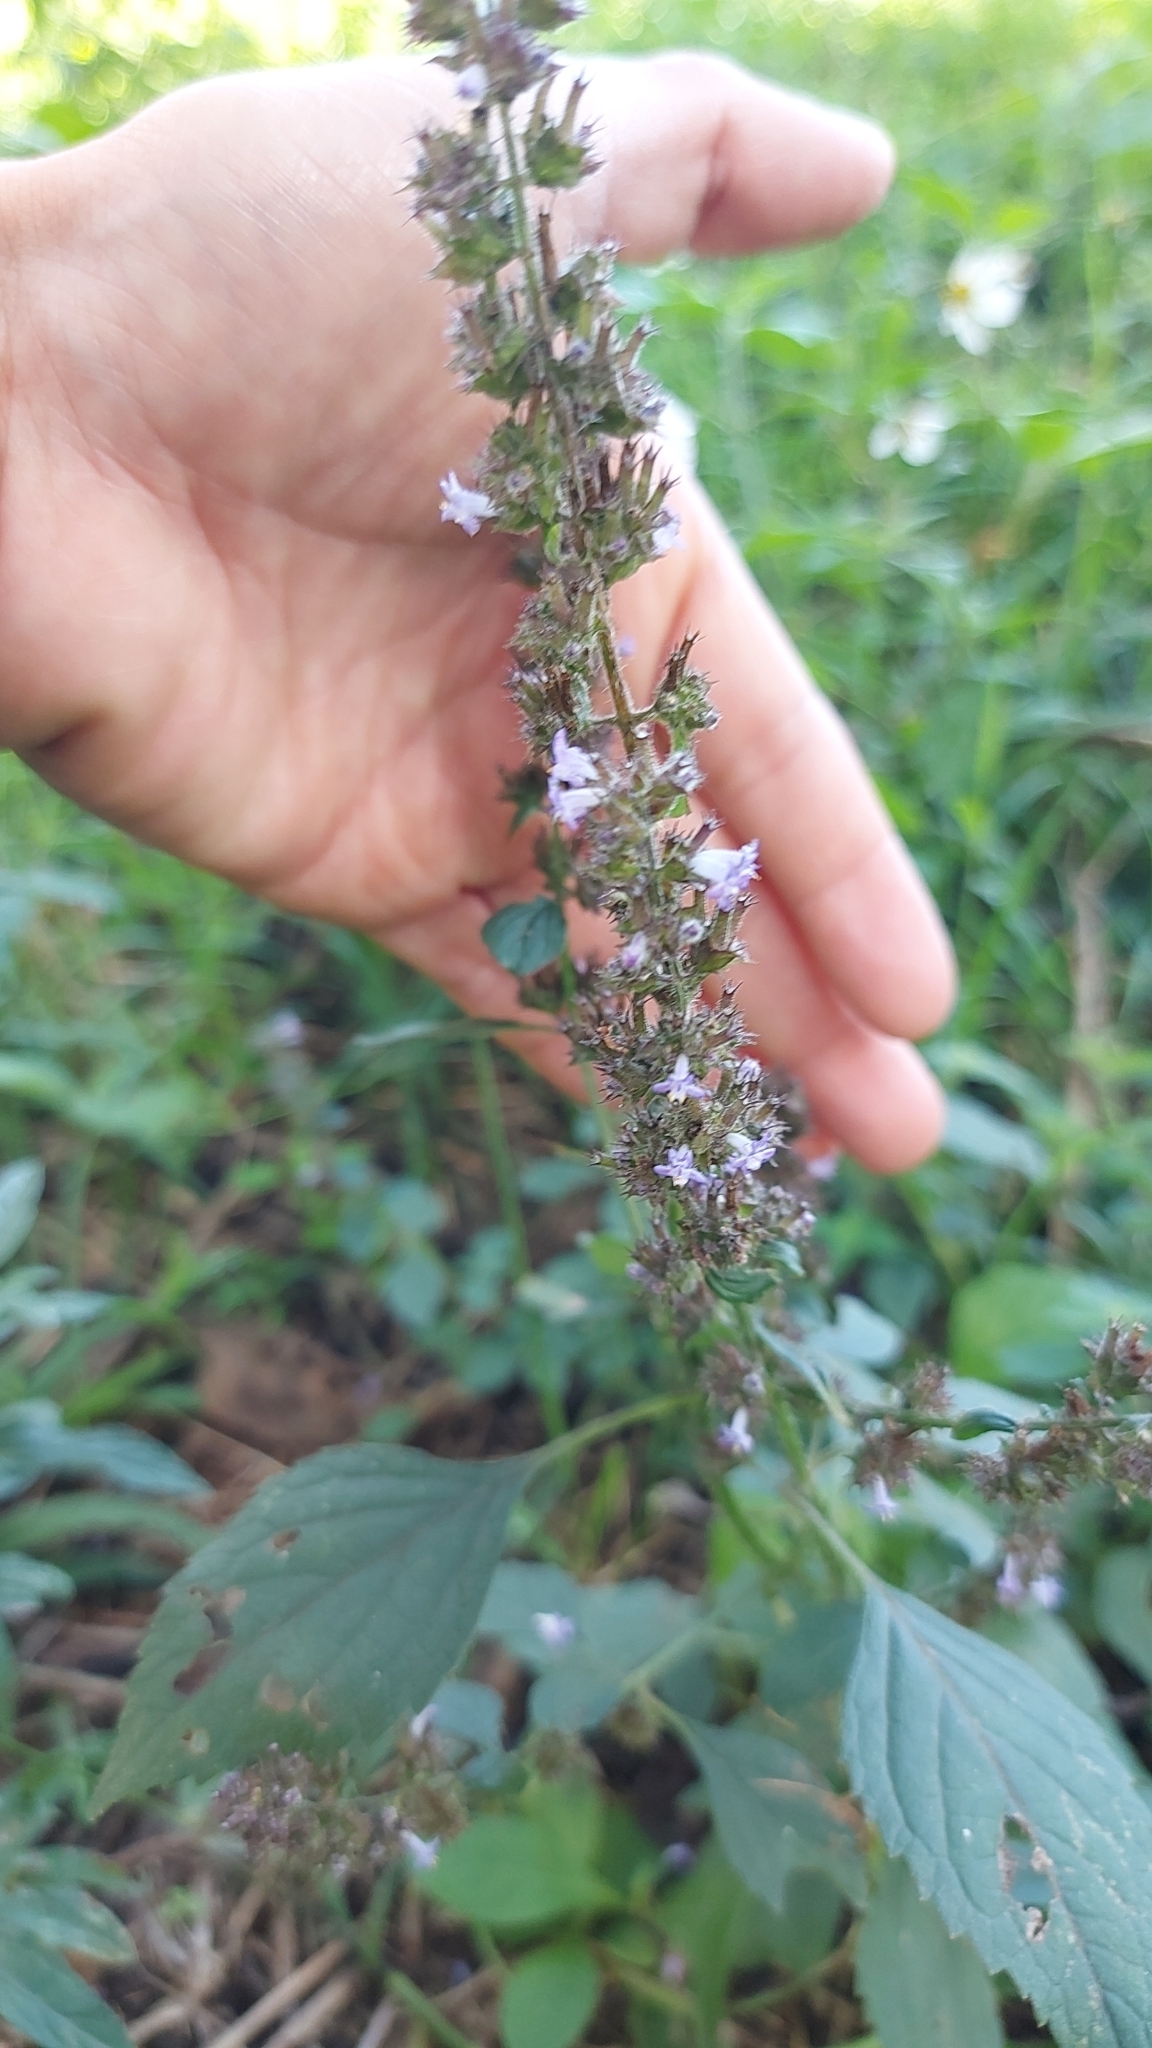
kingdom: Plantae
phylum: Tracheophyta
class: Magnoliopsida
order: Lamiales
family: Lamiaceae
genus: Cantinoa
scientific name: Cantinoa mutabilis
